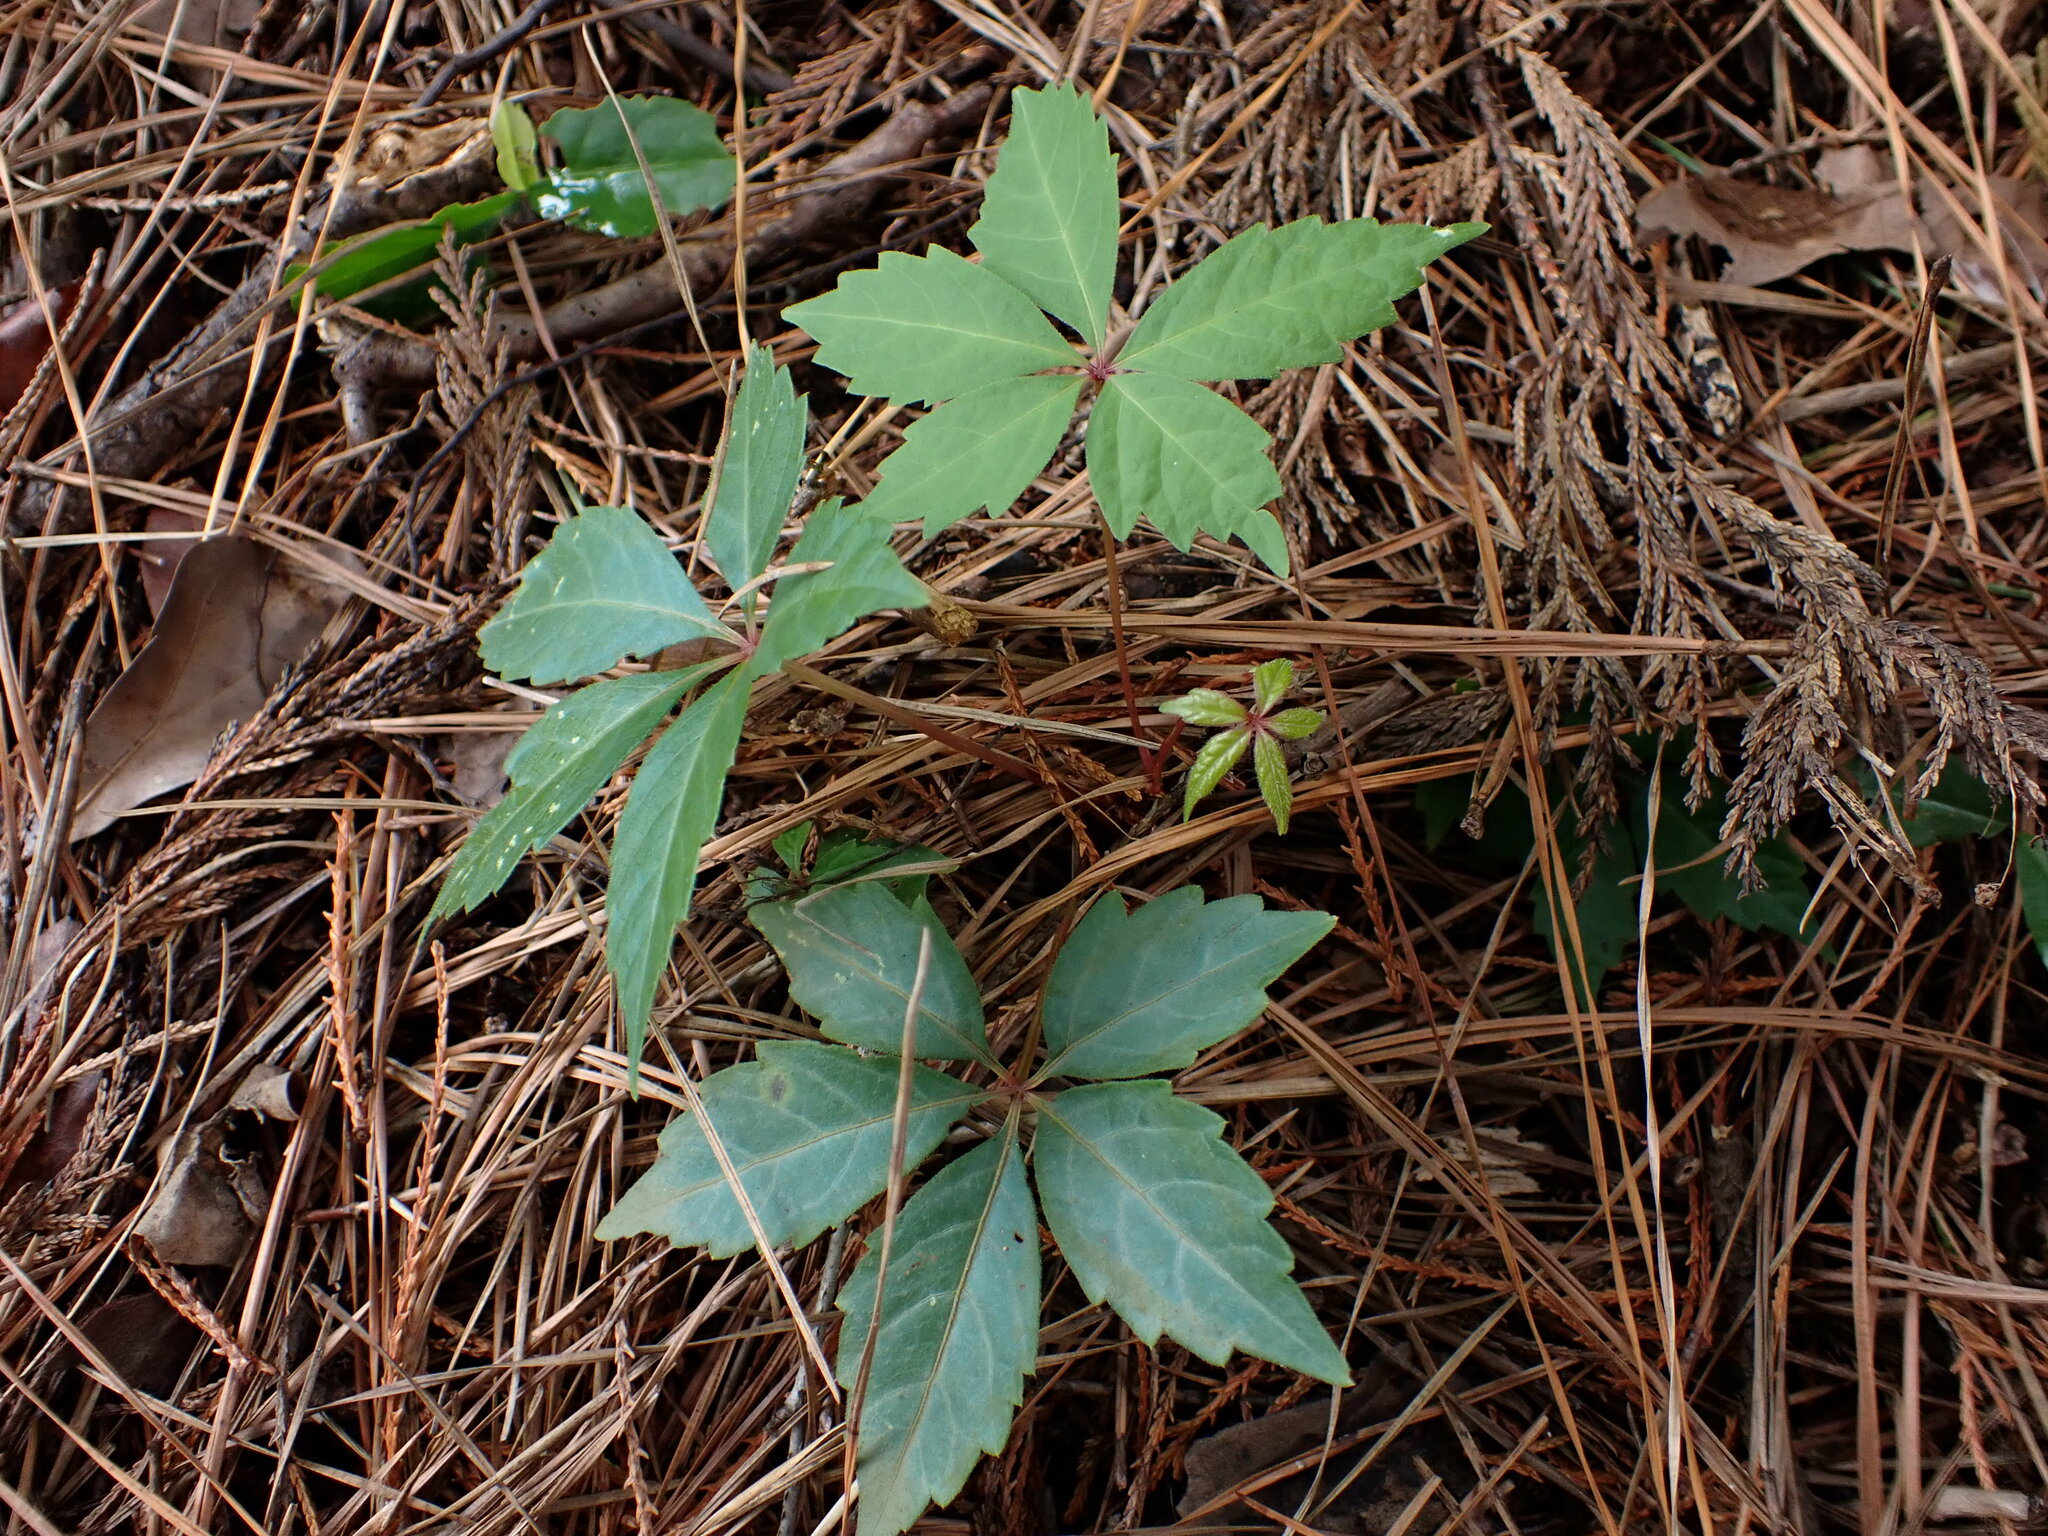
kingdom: Plantae
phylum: Tracheophyta
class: Magnoliopsida
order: Vitales
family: Vitaceae
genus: Parthenocissus
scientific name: Parthenocissus quinquefolia
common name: Virginia-creeper
